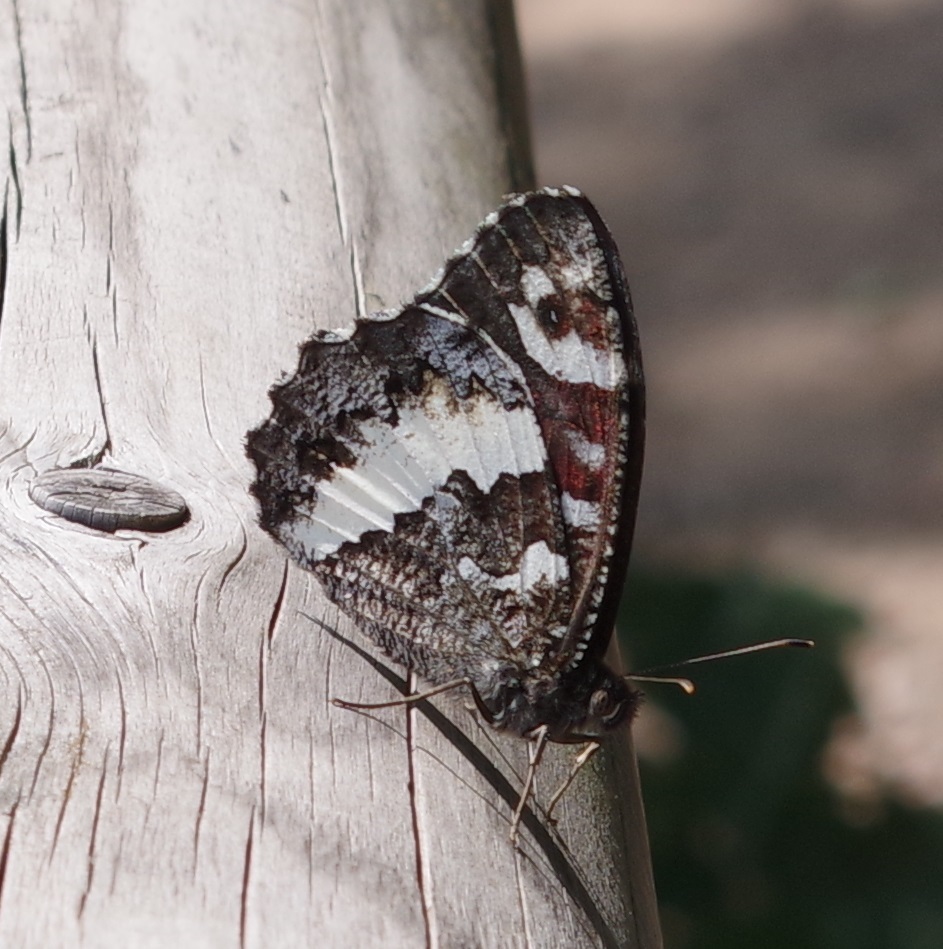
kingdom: Animalia
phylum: Arthropoda
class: Insecta
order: Lepidoptera
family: Lycaenidae
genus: Loweia
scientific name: Loweia tityrus
